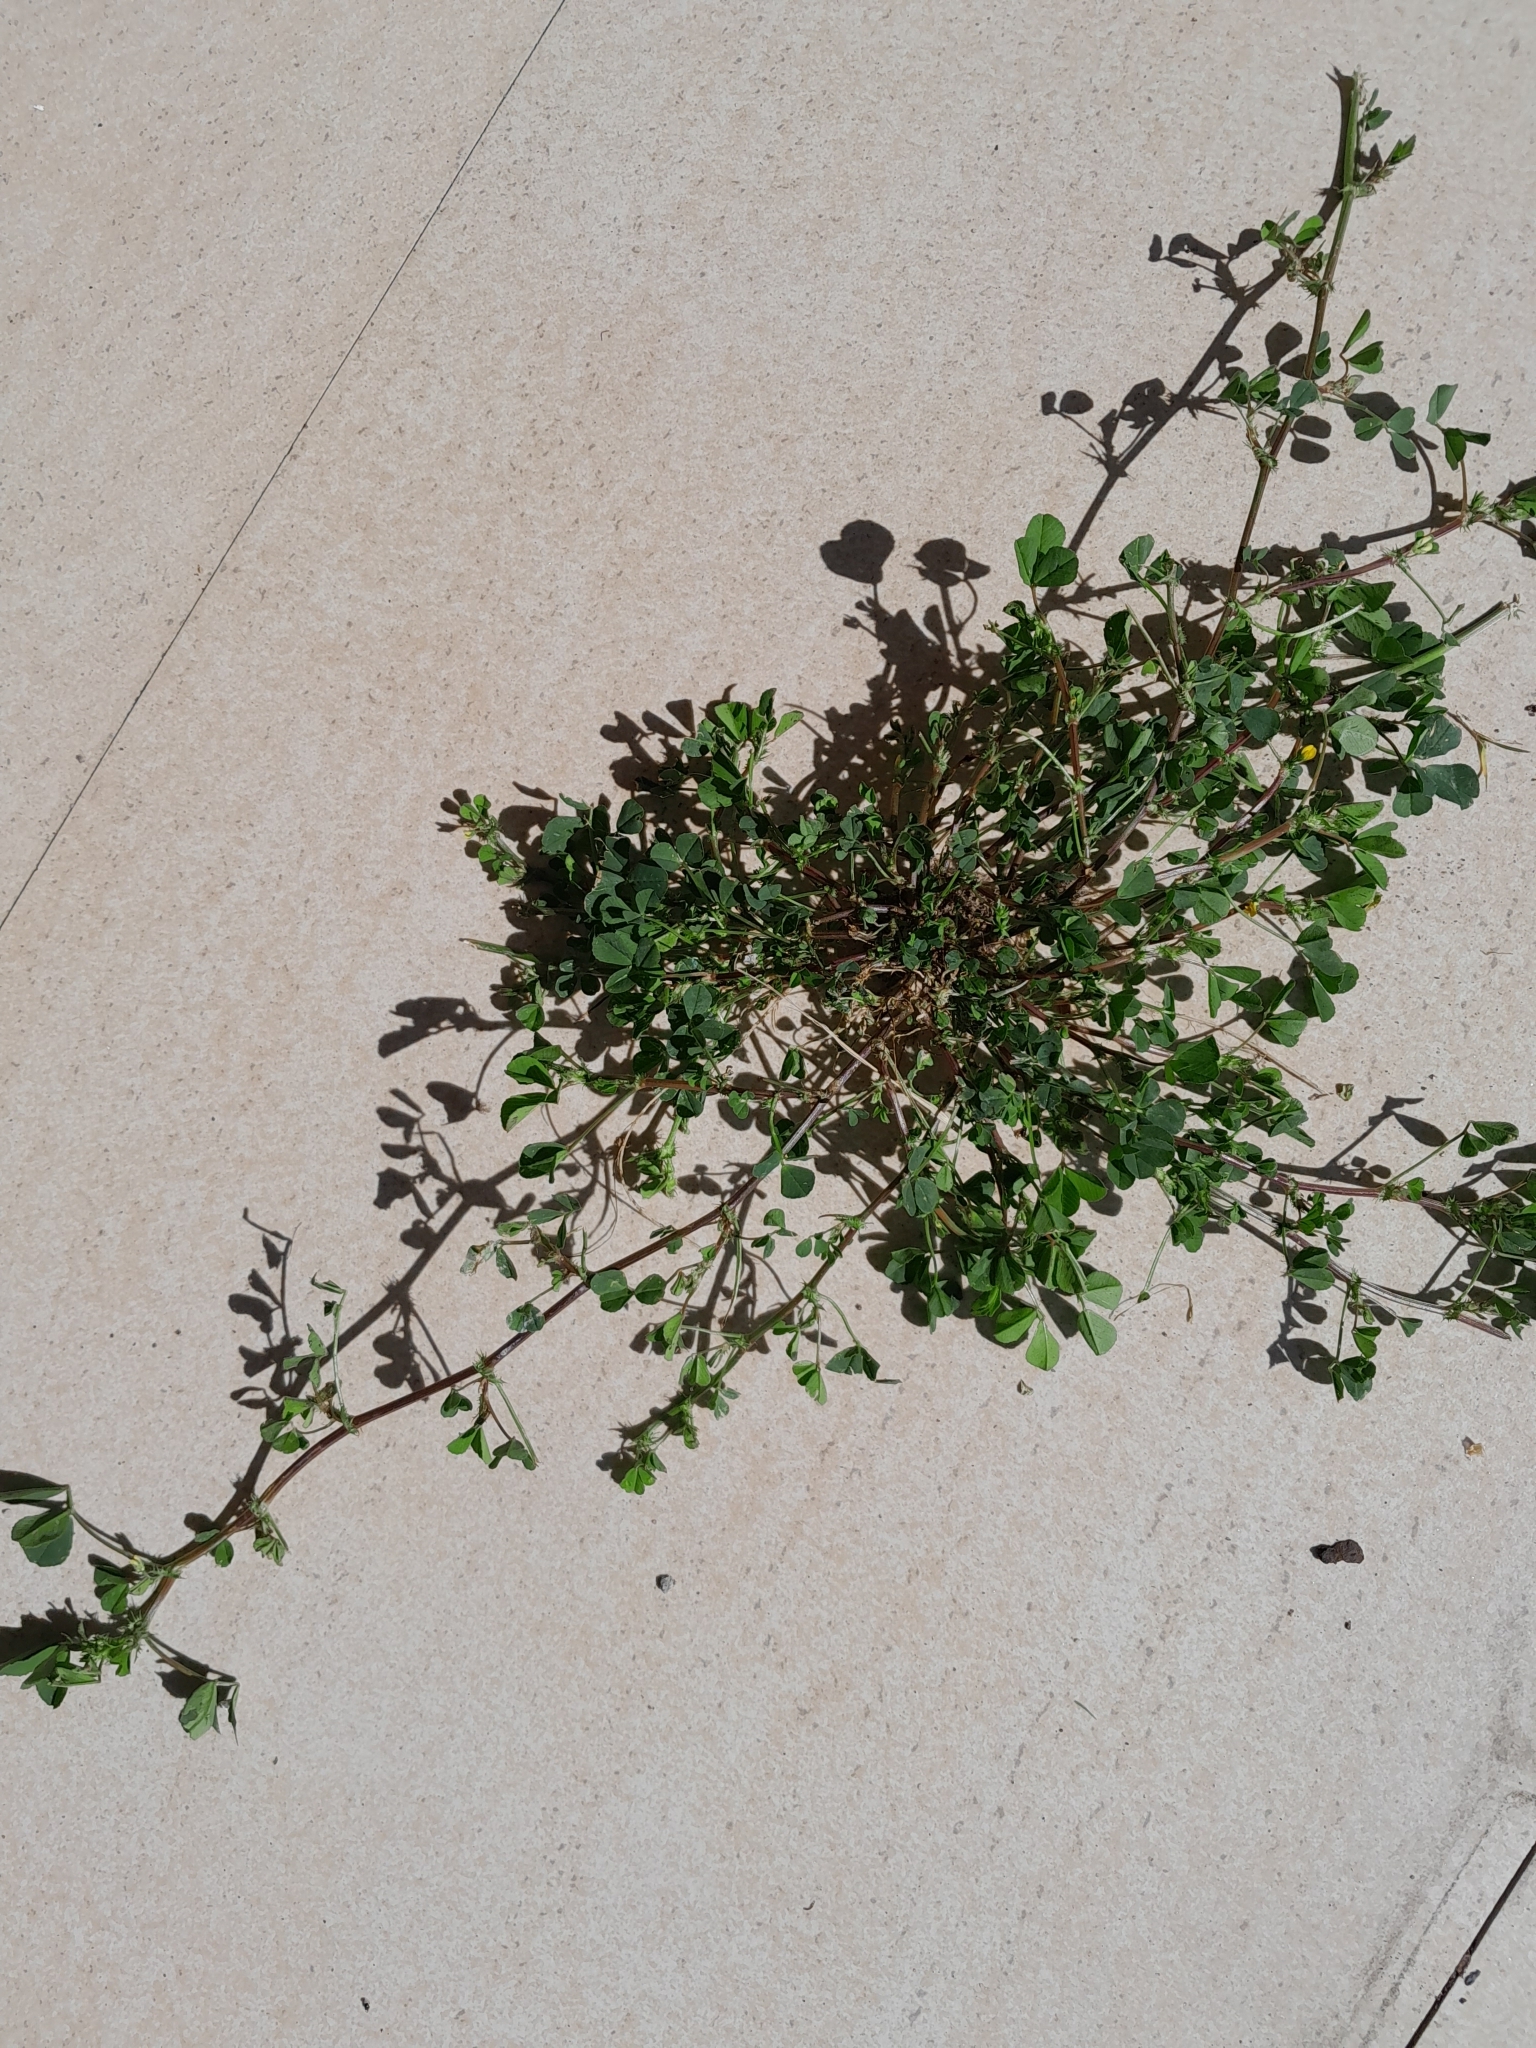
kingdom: Plantae
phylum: Tracheophyta
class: Magnoliopsida
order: Fabales
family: Fabaceae
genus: Medicago
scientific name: Medicago polymorpha
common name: Burclover
